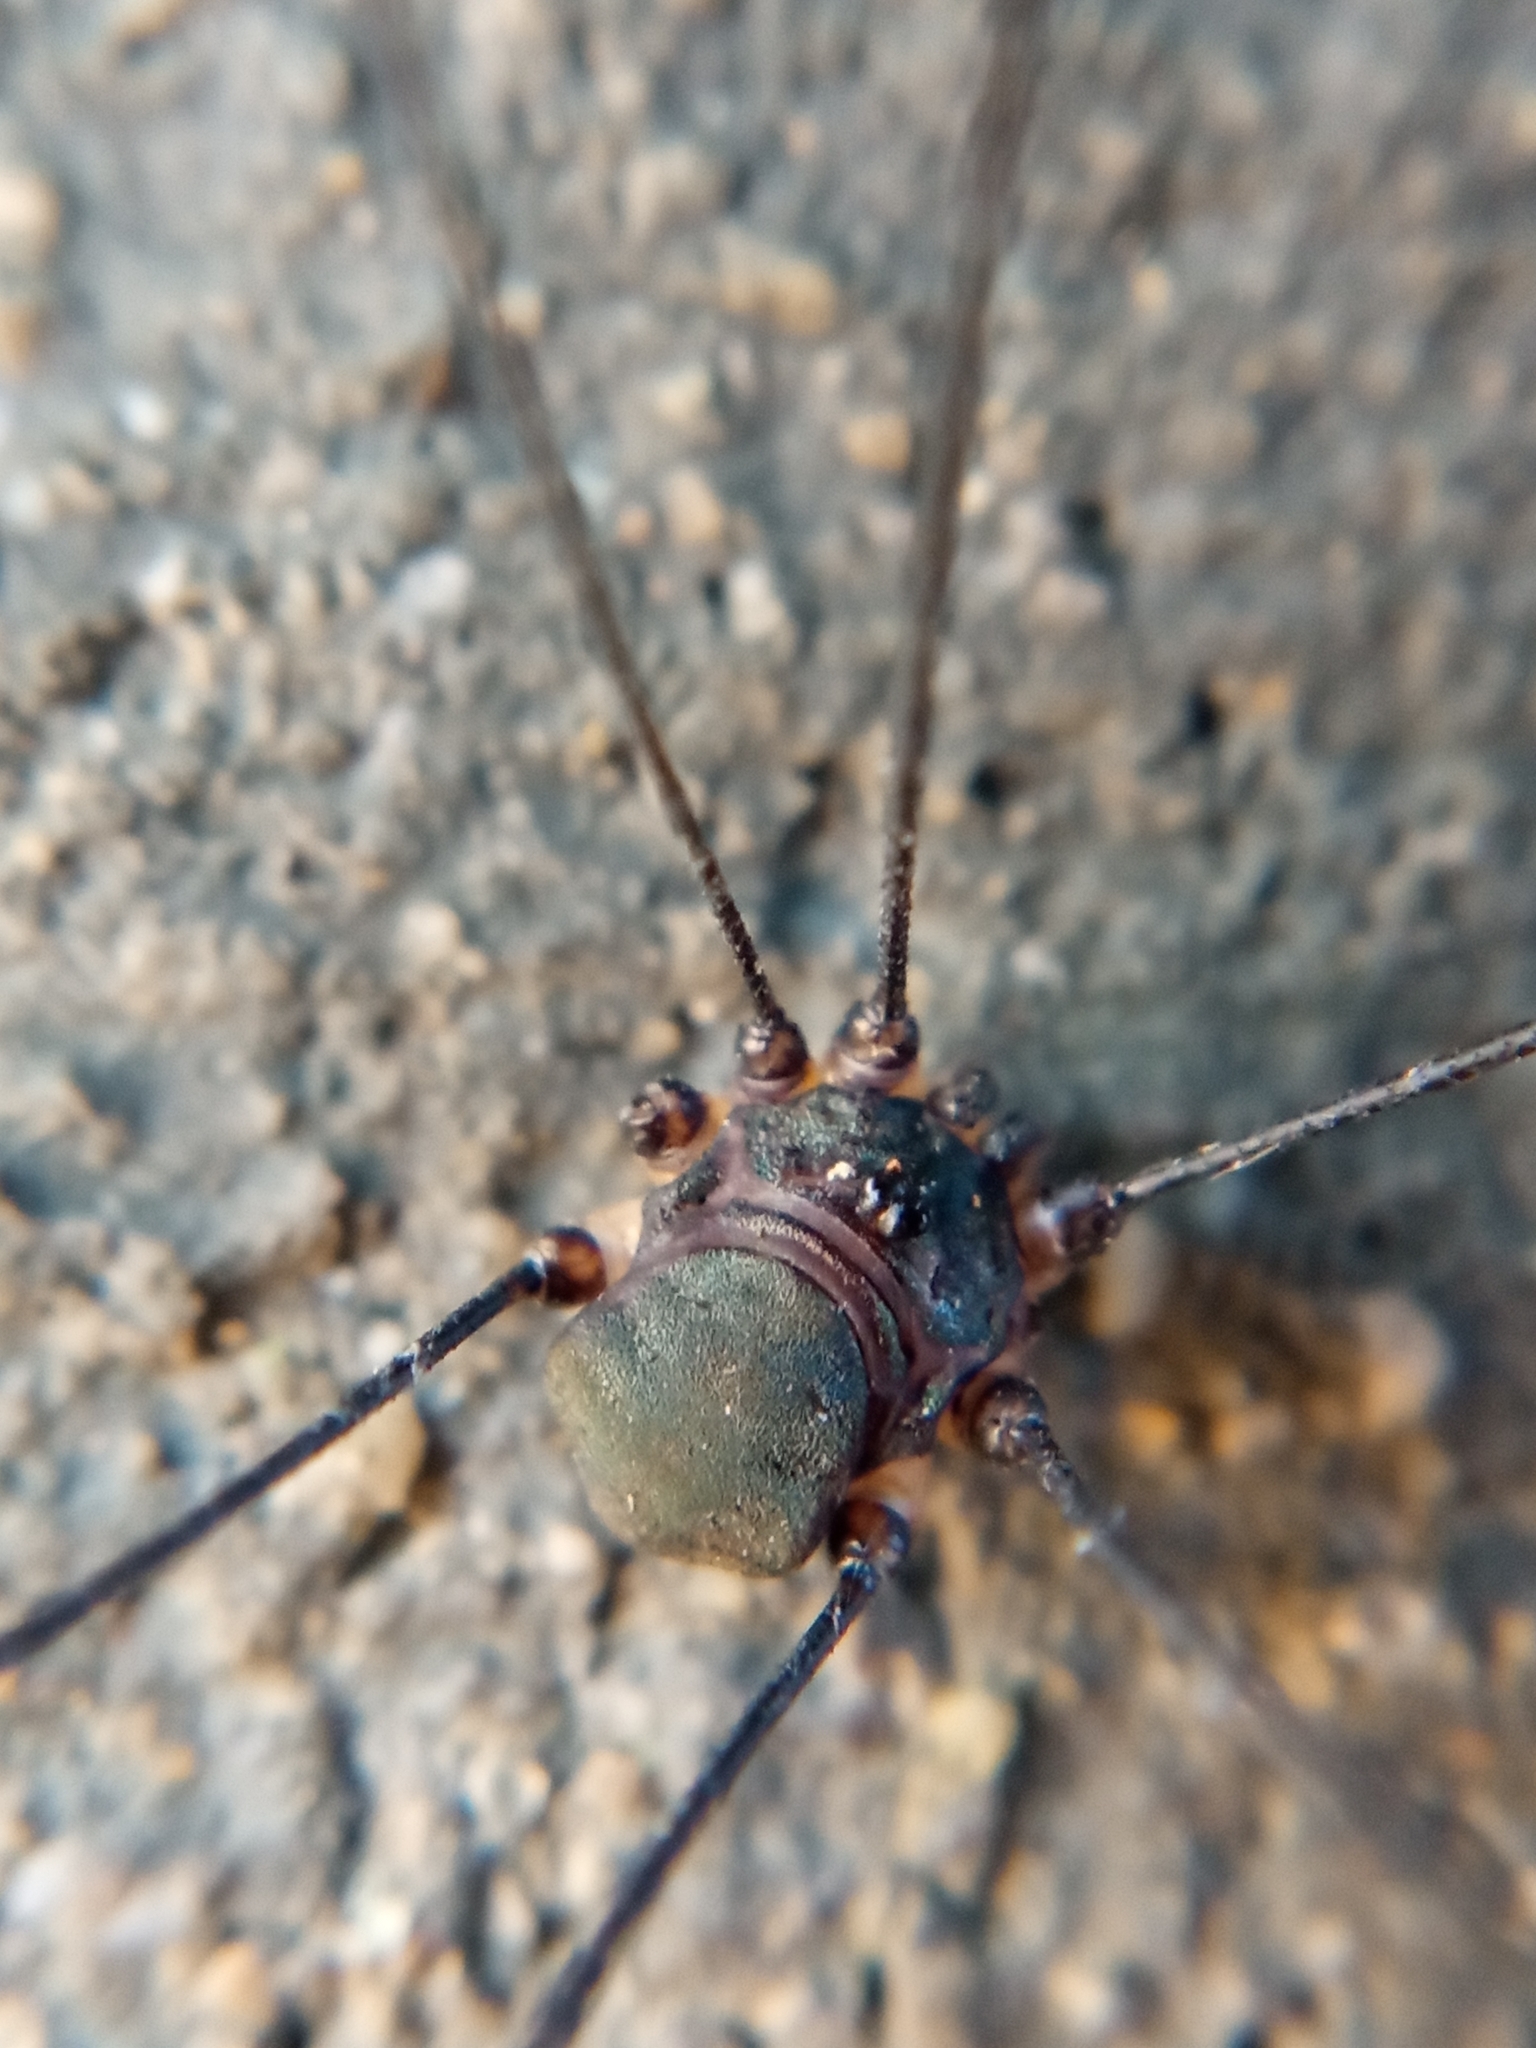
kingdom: Animalia
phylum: Arthropoda
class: Arachnida
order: Opiliones
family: Sclerosomatidae
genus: Leiobunum
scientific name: Leiobunum
